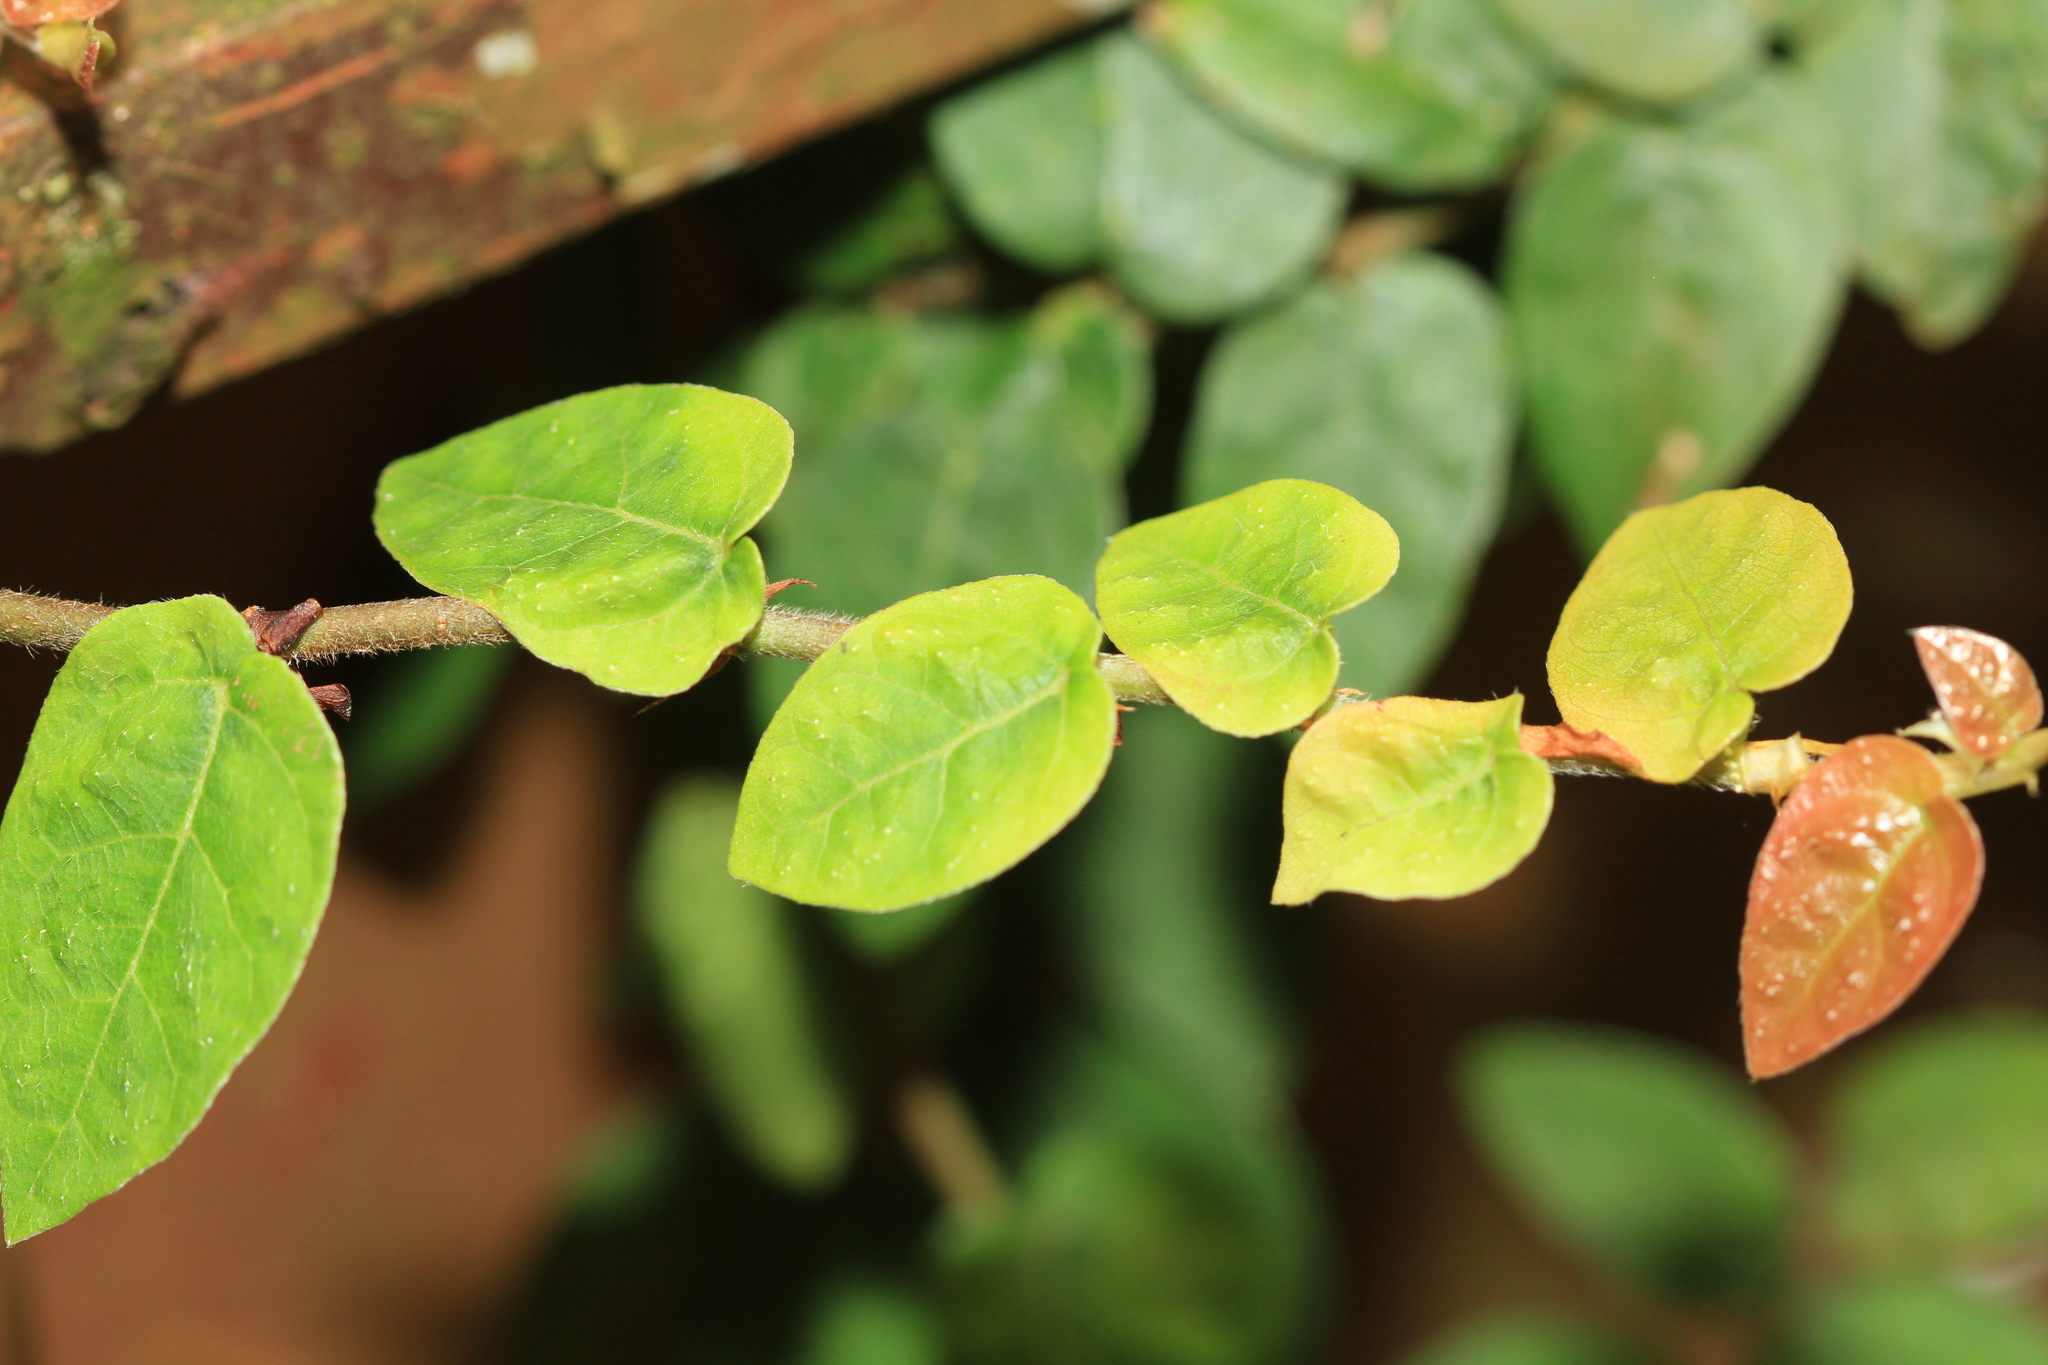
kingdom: Plantae
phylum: Tracheophyta
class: Magnoliopsida
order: Rosales
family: Moraceae
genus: Ficus
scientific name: Ficus pumila
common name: Climbingfig
